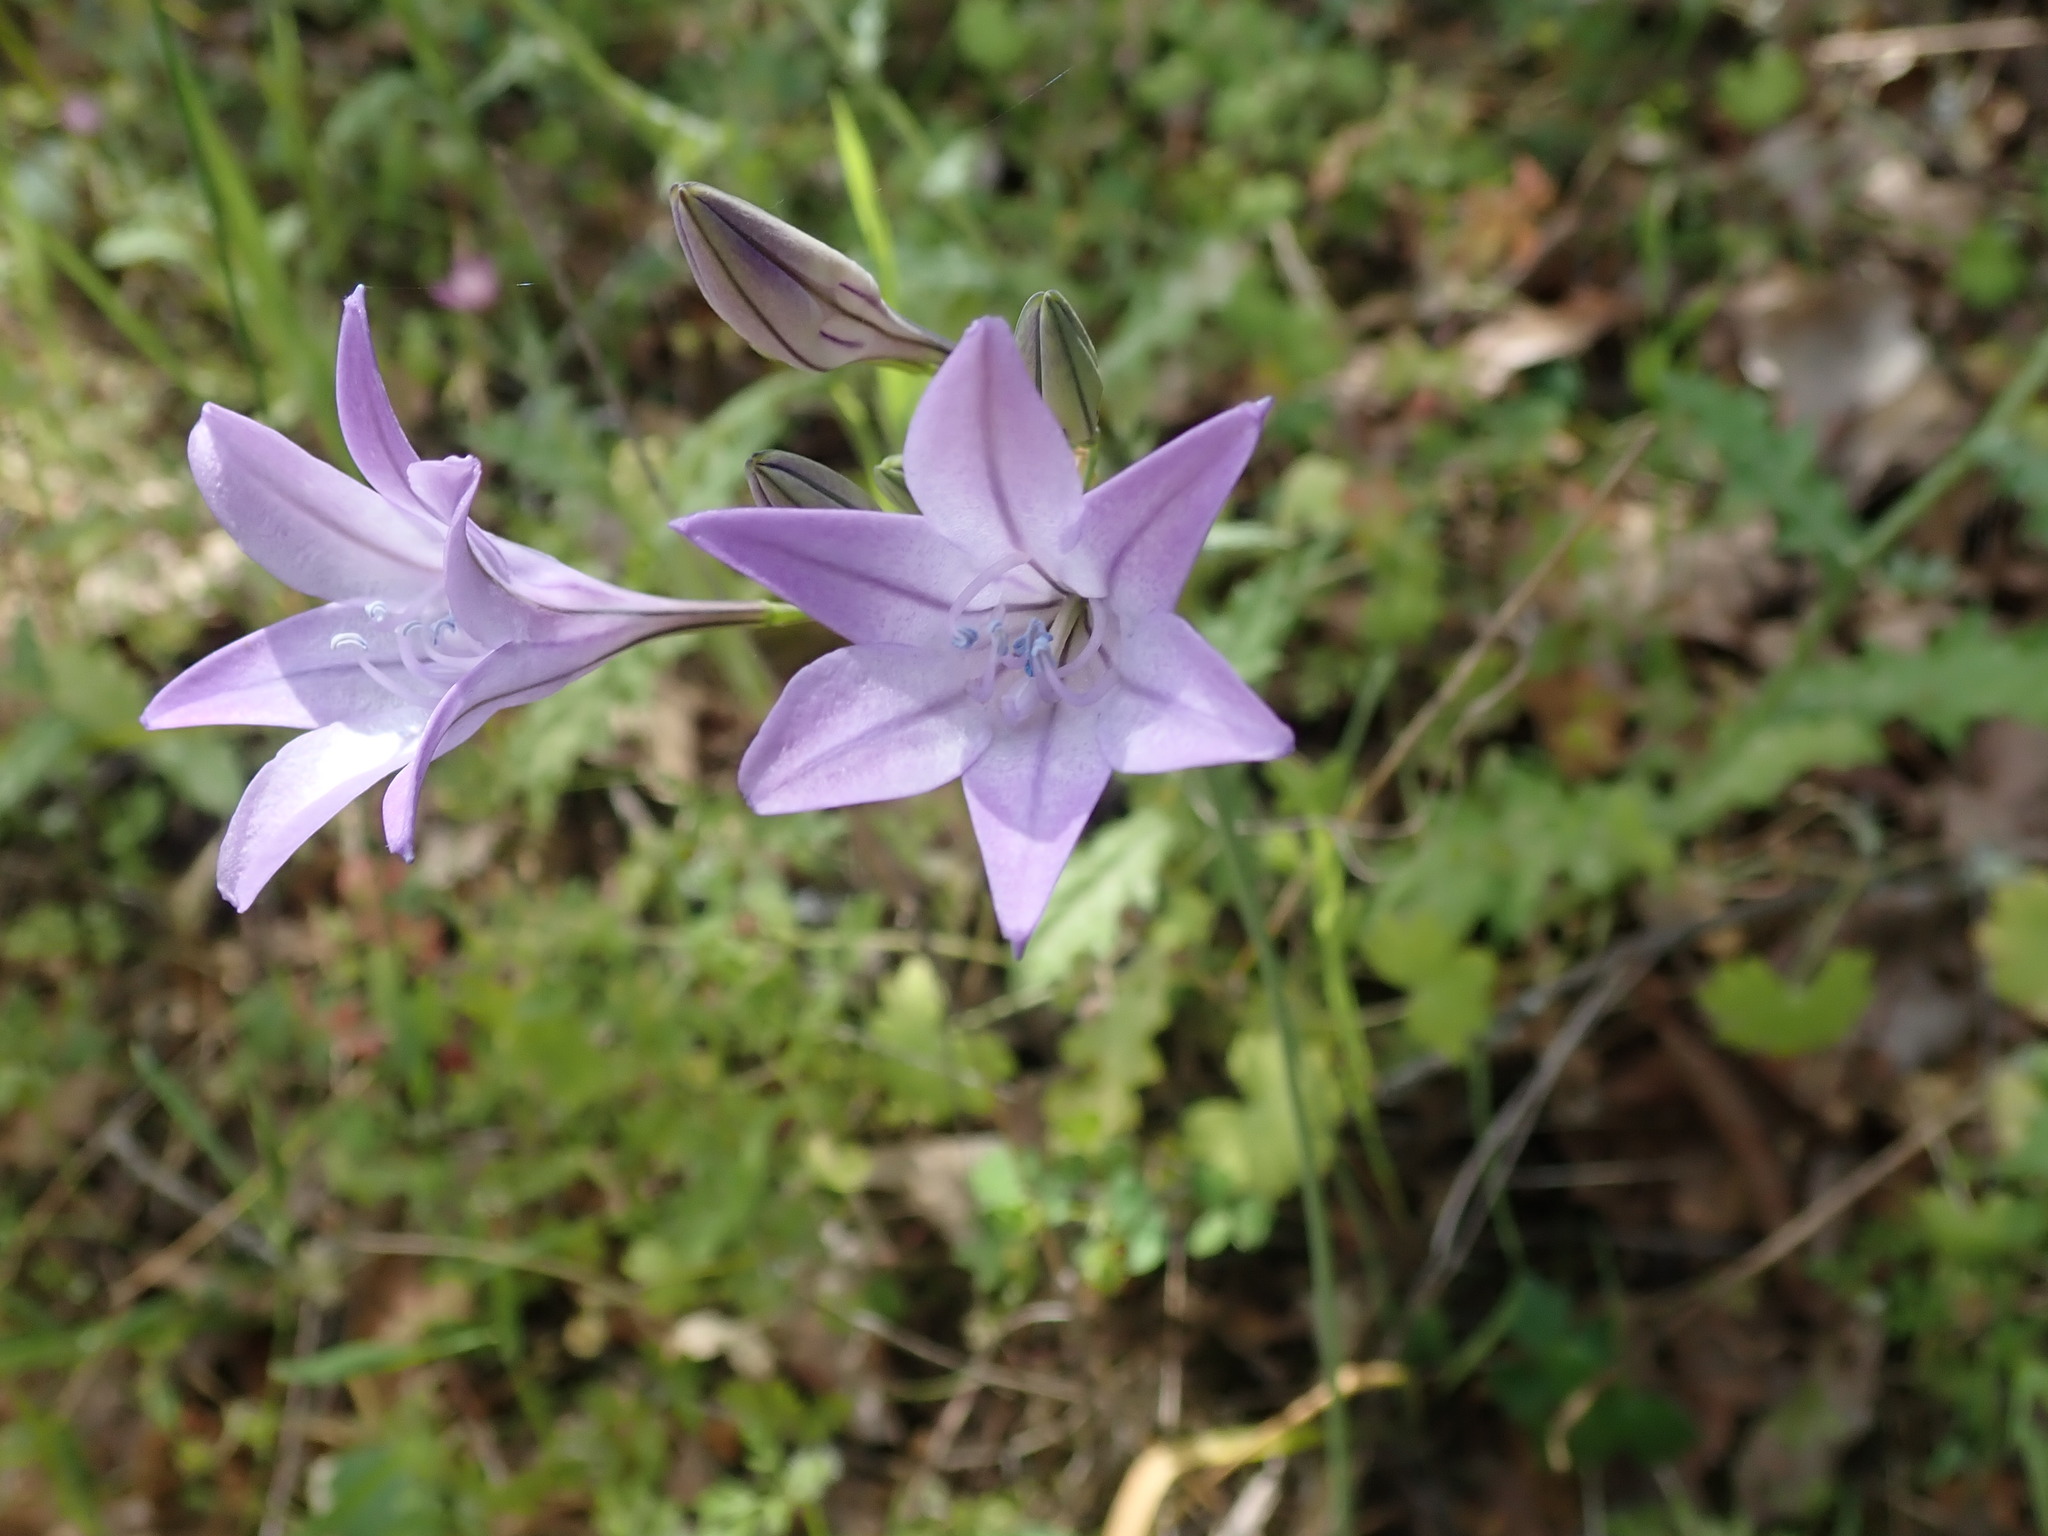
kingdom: Plantae
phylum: Tracheophyta
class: Liliopsida
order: Asparagales
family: Asparagaceae
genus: Triteleia
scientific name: Triteleia laxa
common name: Triplet-lily
